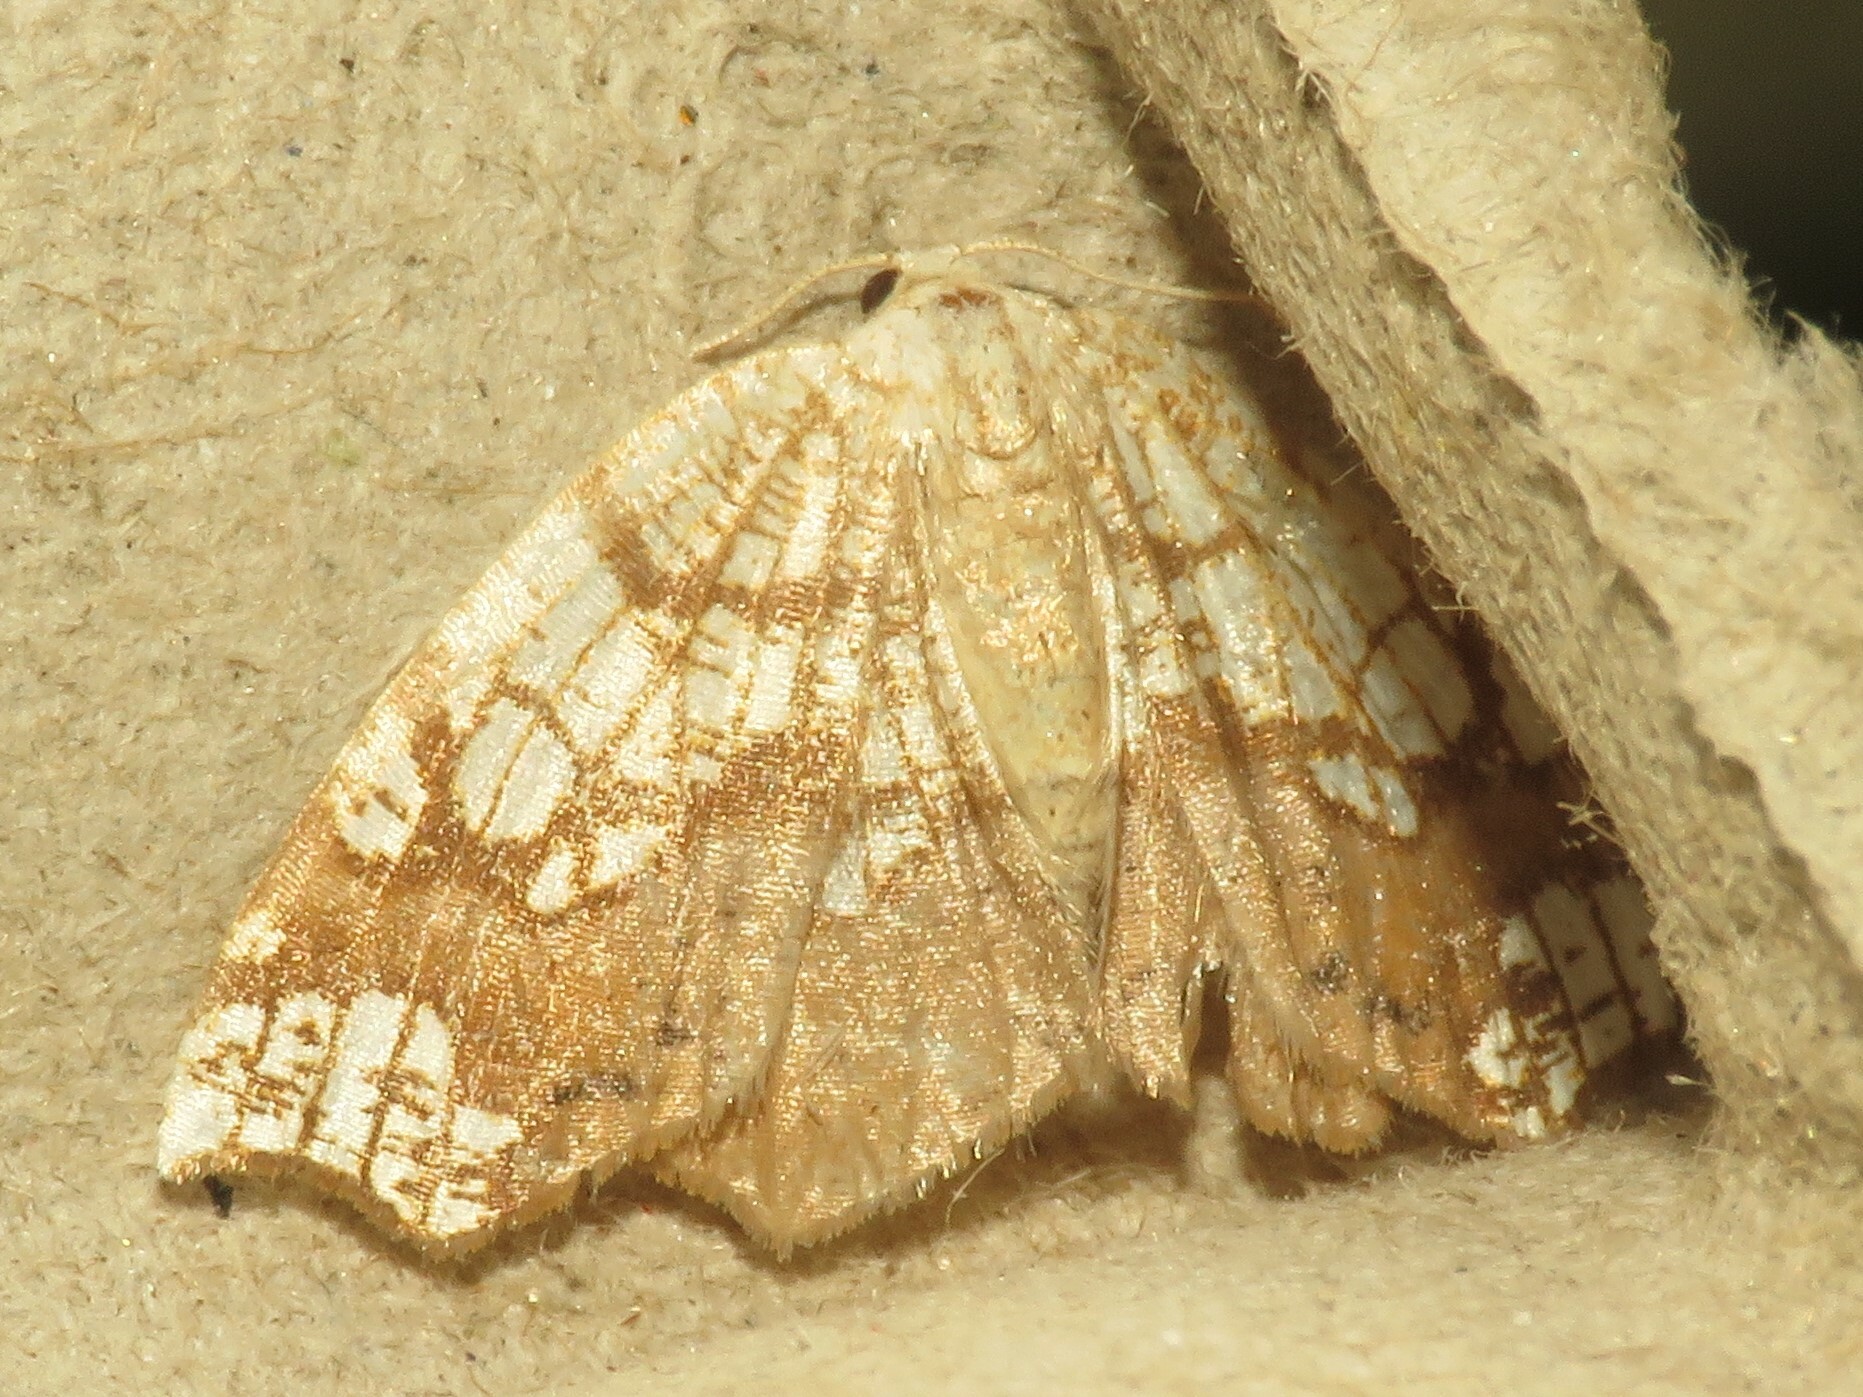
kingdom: Animalia
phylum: Arthropoda
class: Insecta
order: Lepidoptera
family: Geometridae
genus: Nematocampa
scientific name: Nematocampa resistaria
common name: Horned spanworm moth
